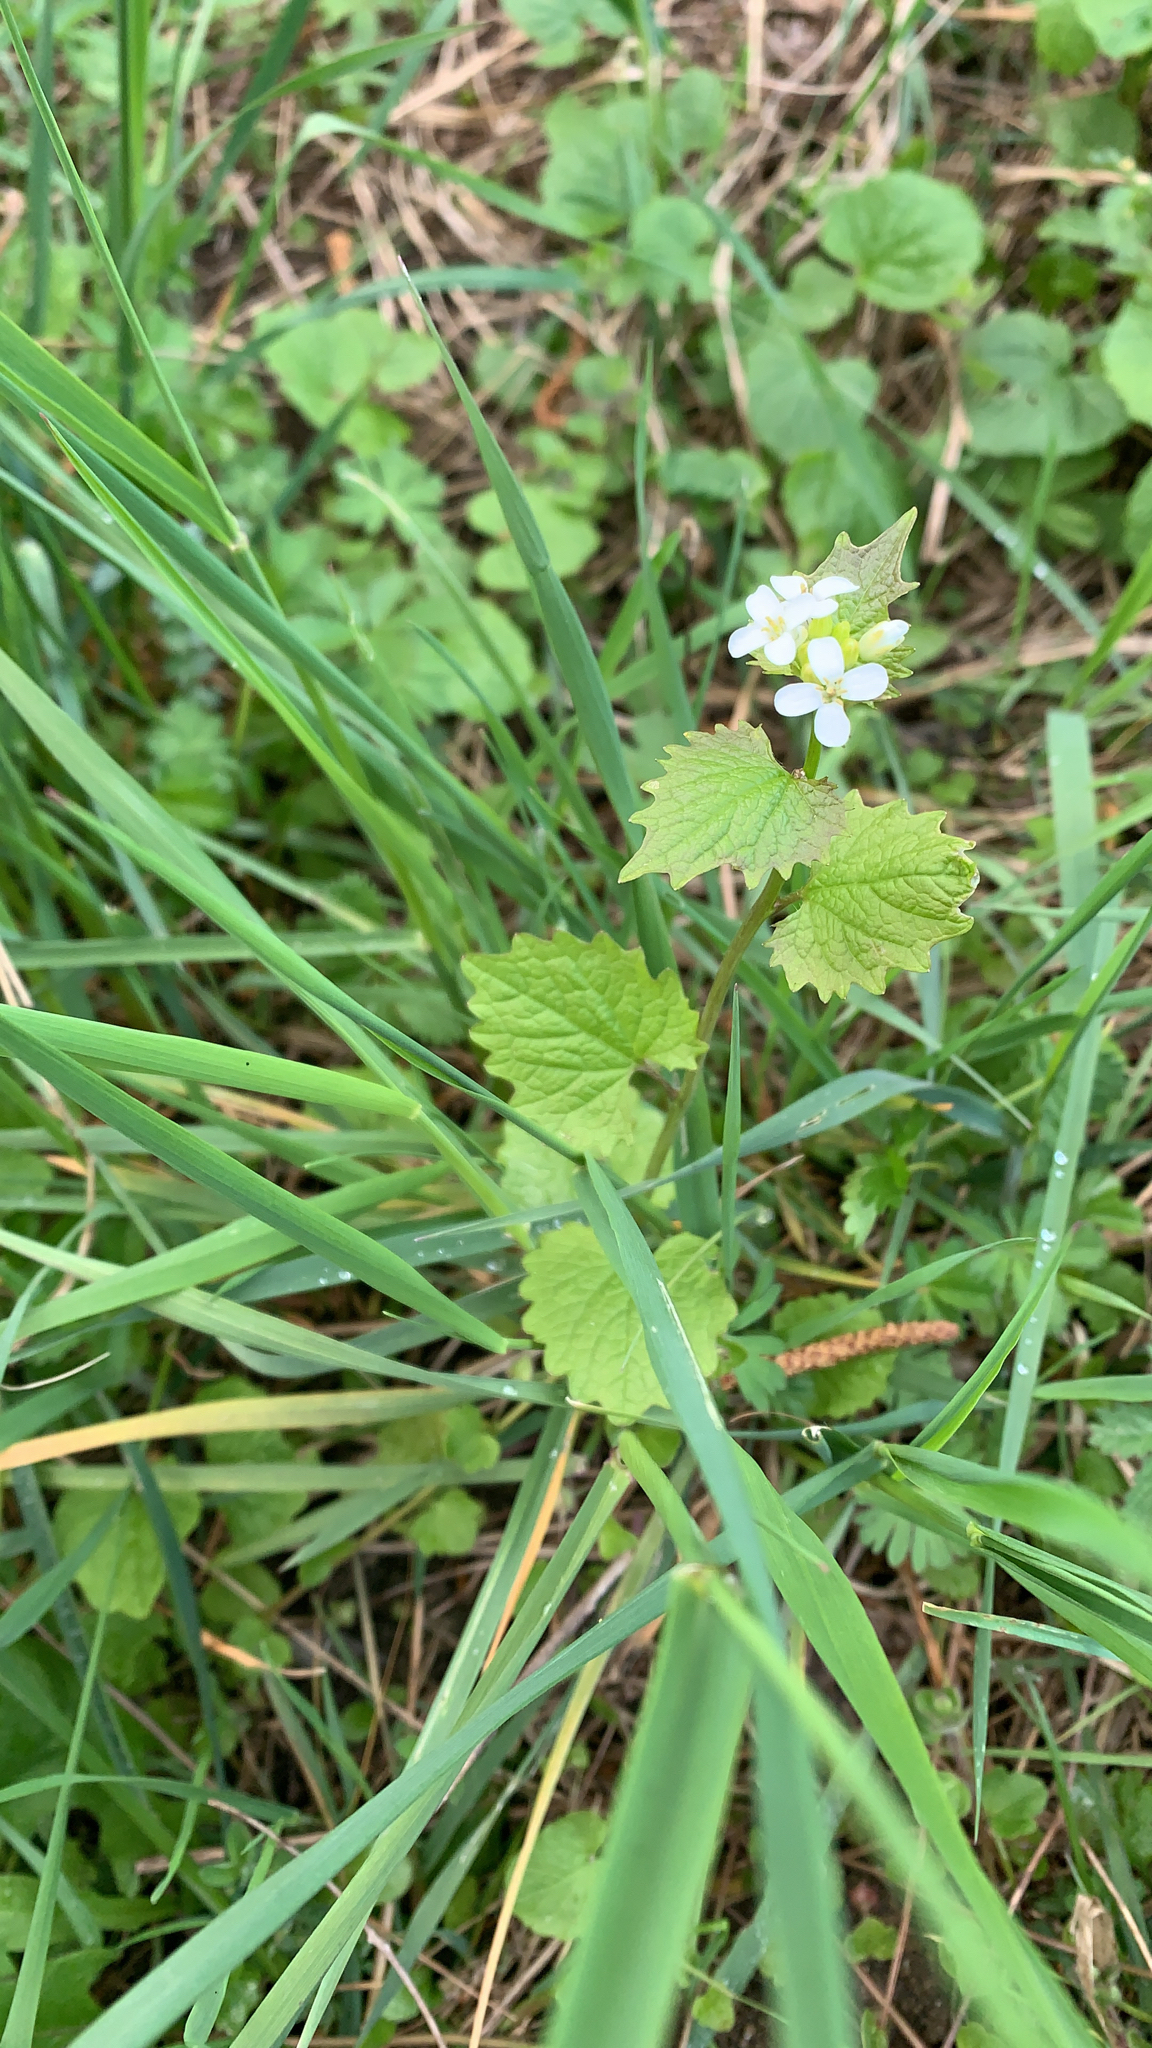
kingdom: Plantae
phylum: Tracheophyta
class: Magnoliopsida
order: Brassicales
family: Brassicaceae
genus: Alliaria
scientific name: Alliaria petiolata
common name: Garlic mustard
